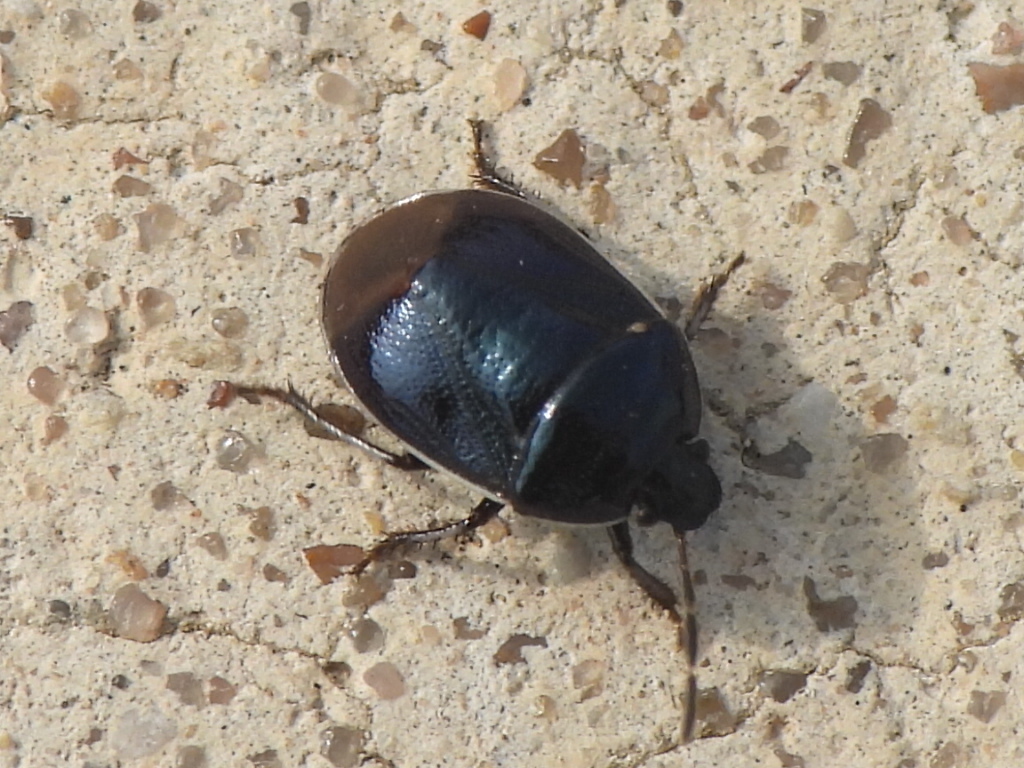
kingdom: Animalia
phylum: Arthropoda
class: Insecta
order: Hemiptera
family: Cydnidae
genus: Sehirus
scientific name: Sehirus cinctus
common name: White-margined burrower bug
